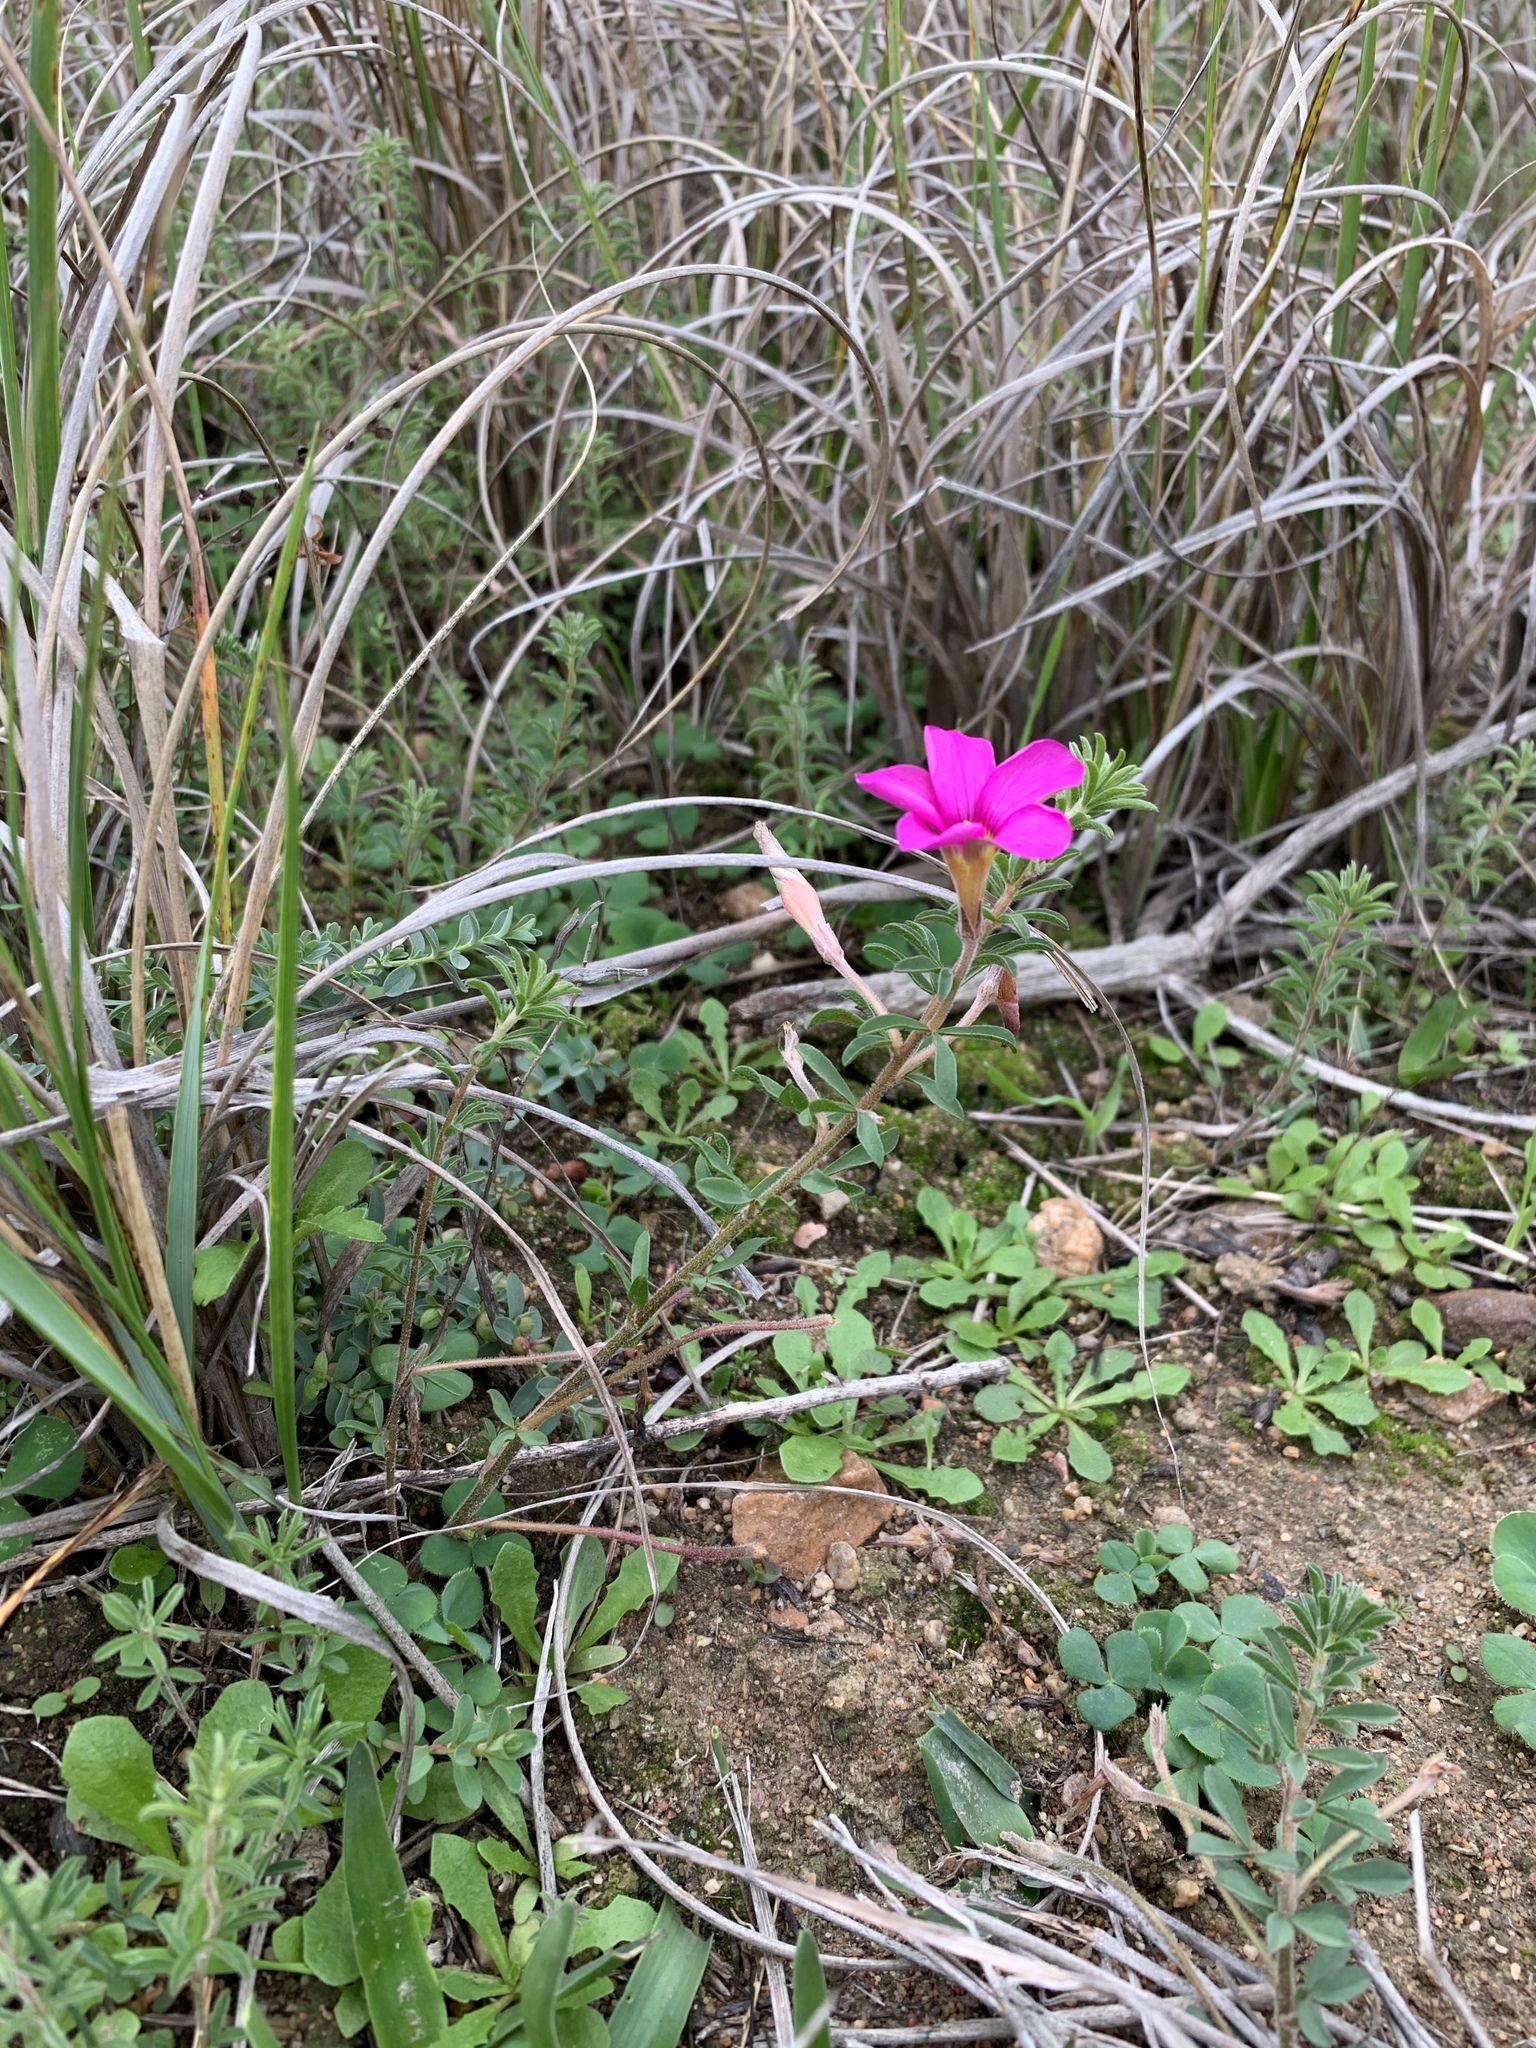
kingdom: Plantae
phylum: Tracheophyta
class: Magnoliopsida
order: Oxalidales
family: Oxalidaceae
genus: Oxalis
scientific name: Oxalis hirta
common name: Tropical woodsorrel
